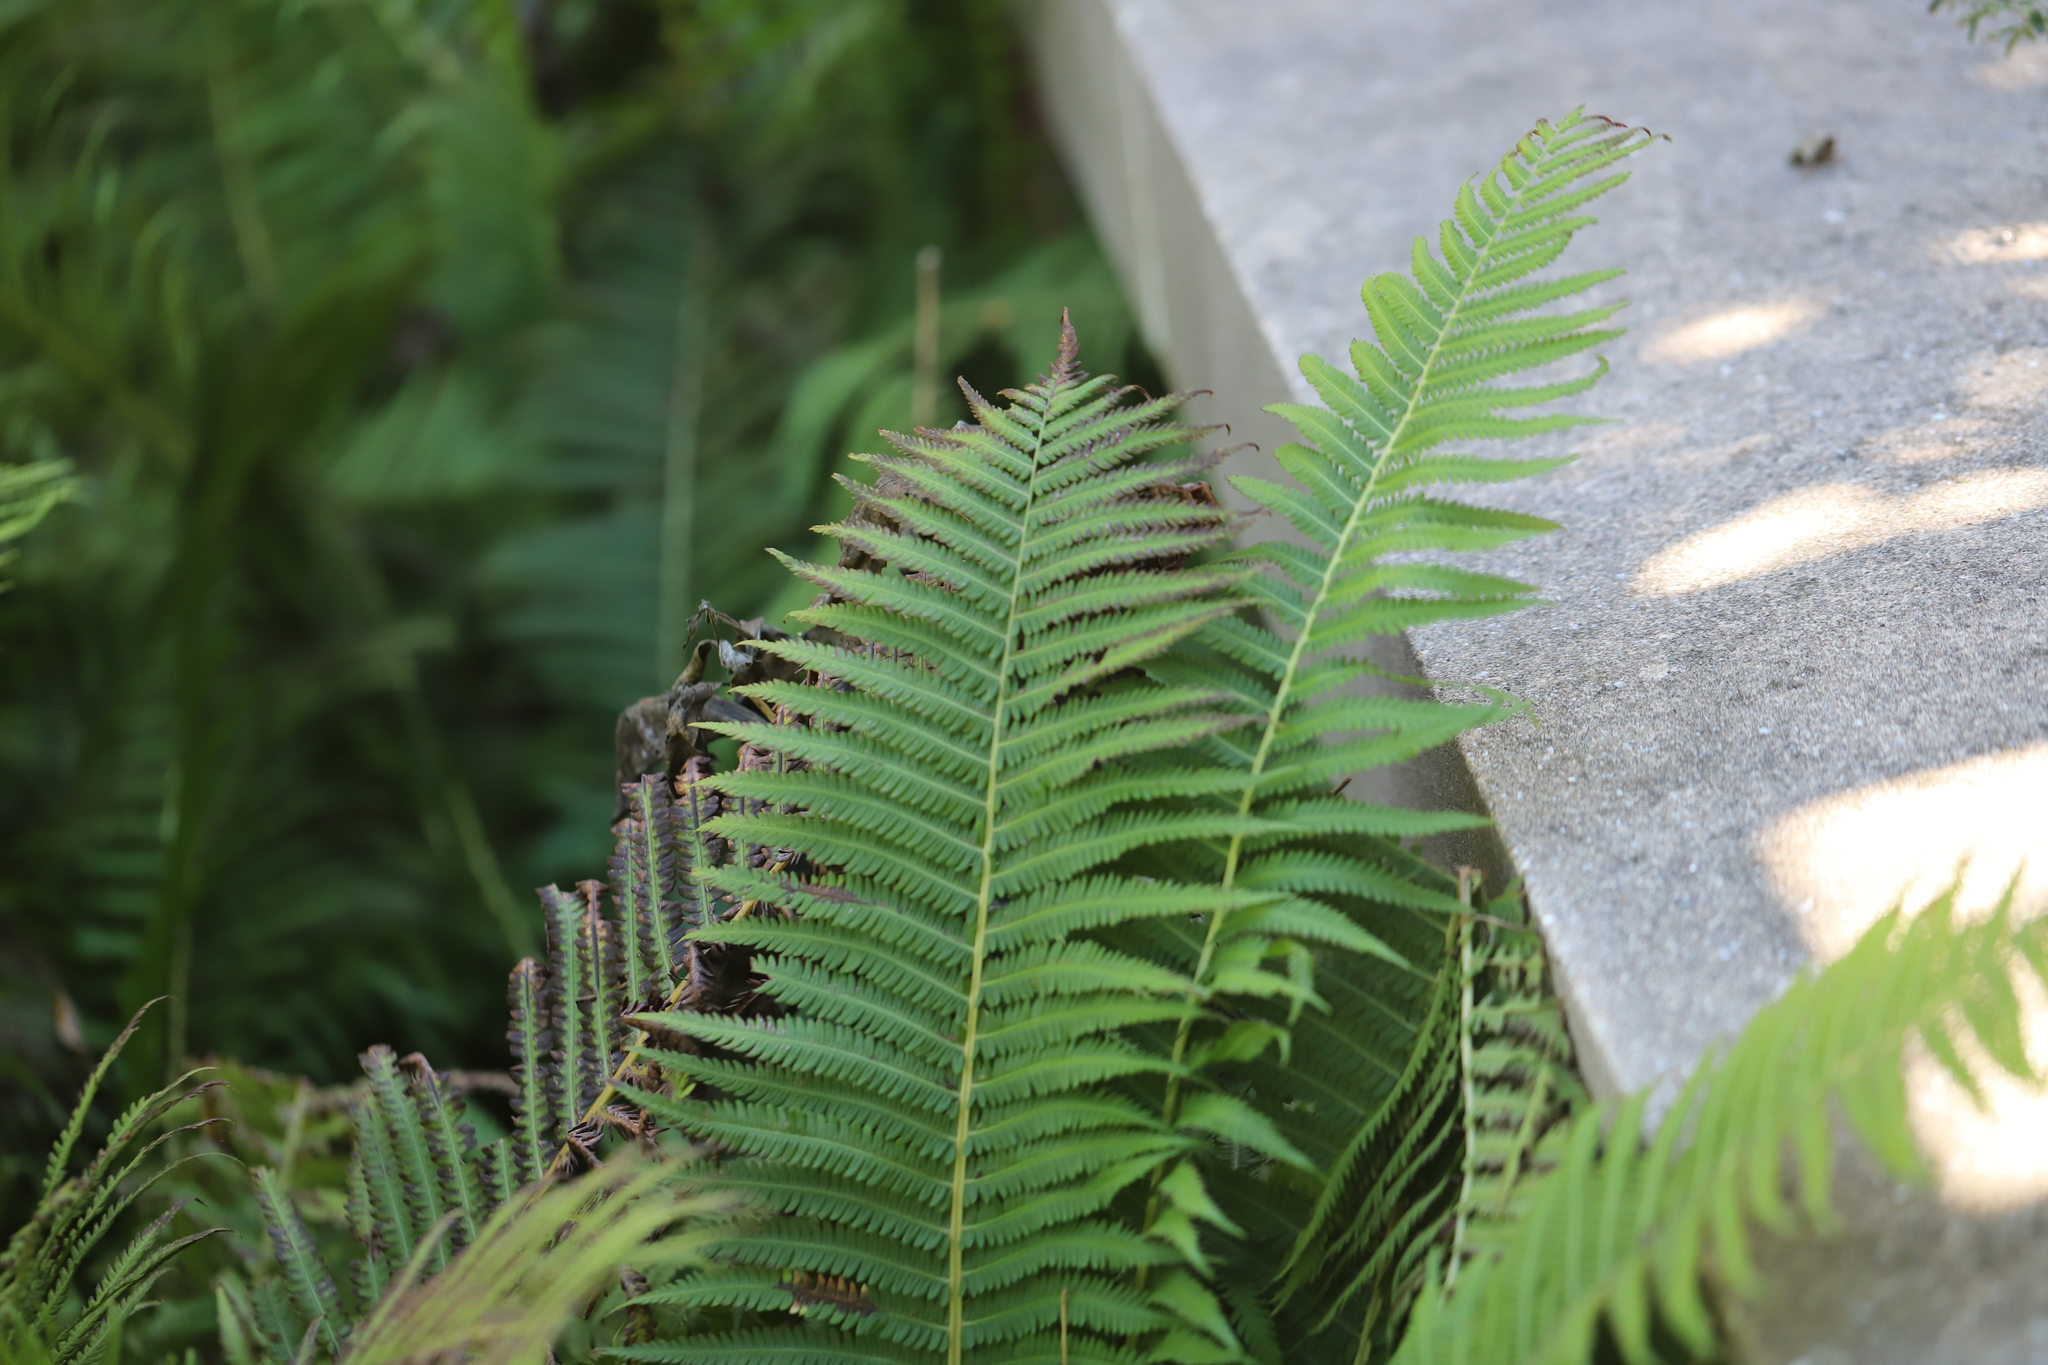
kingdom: Plantae
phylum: Tracheophyta
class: Polypodiopsida
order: Polypodiales
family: Onocleaceae
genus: Matteuccia
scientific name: Matteuccia struthiopteris
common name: Ostrich fern
